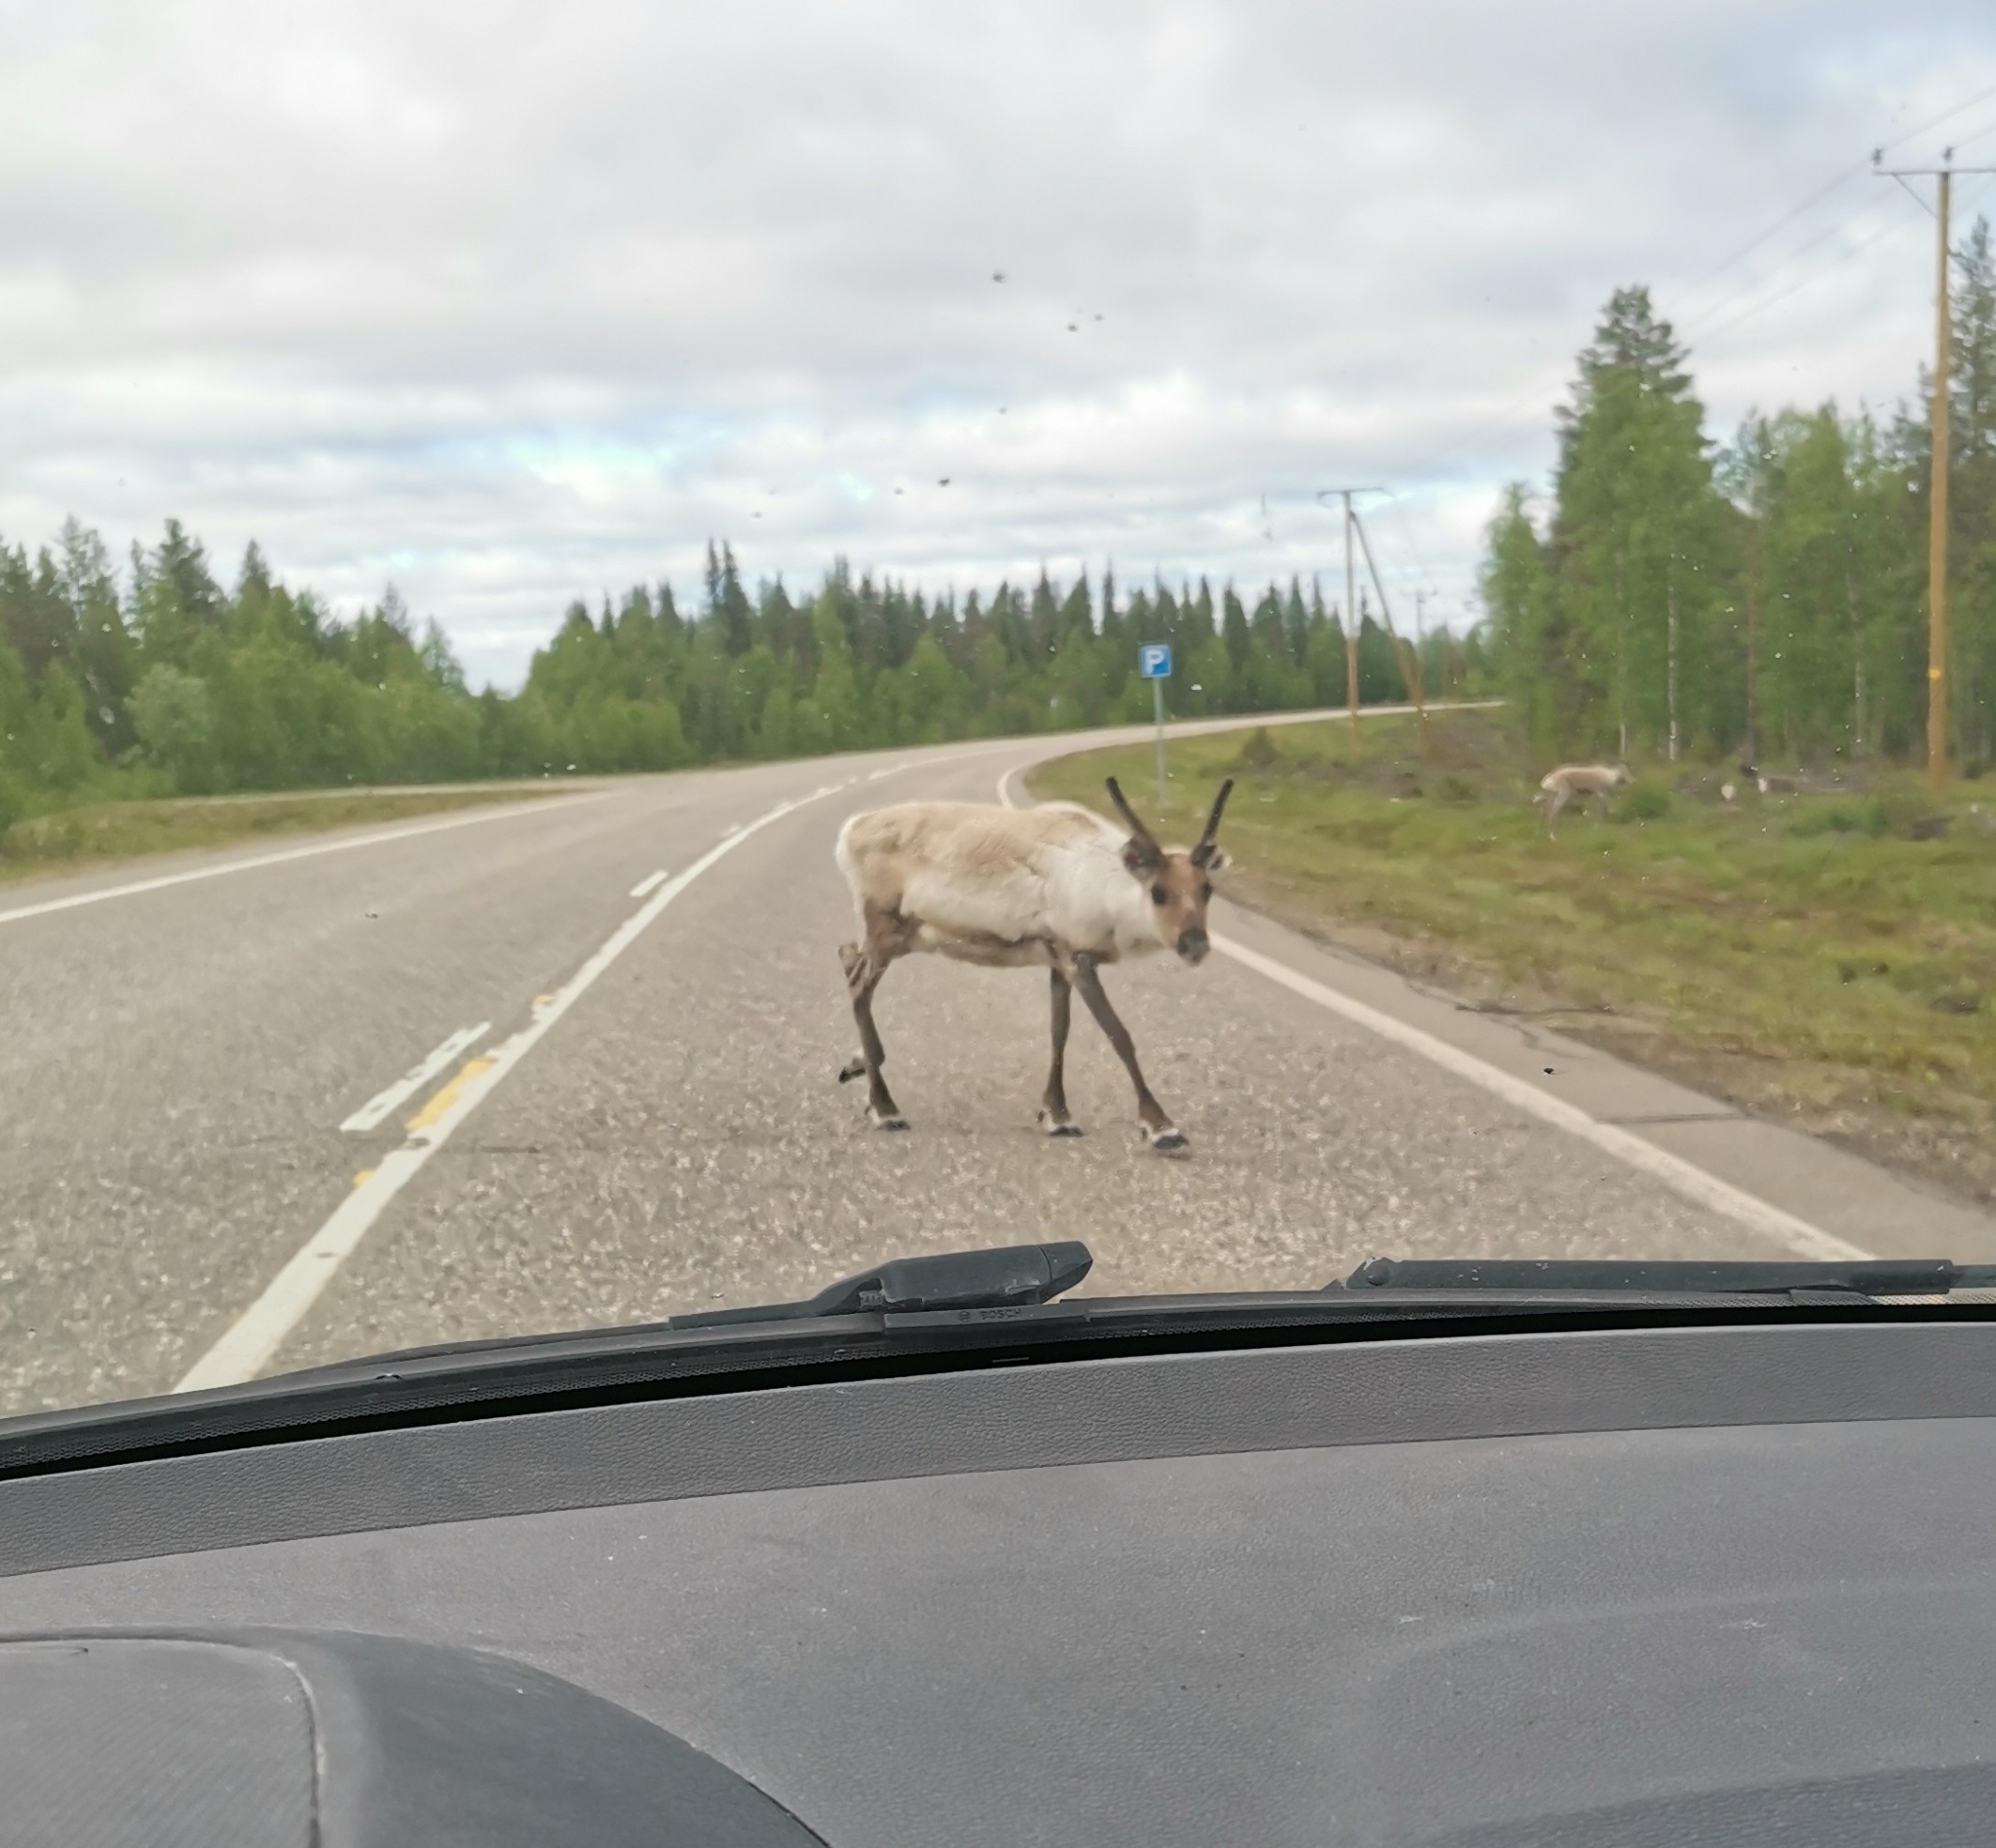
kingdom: Animalia
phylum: Chordata
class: Mammalia
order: Artiodactyla
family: Cervidae
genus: Rangifer
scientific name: Rangifer tarandus
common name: Reindeer
